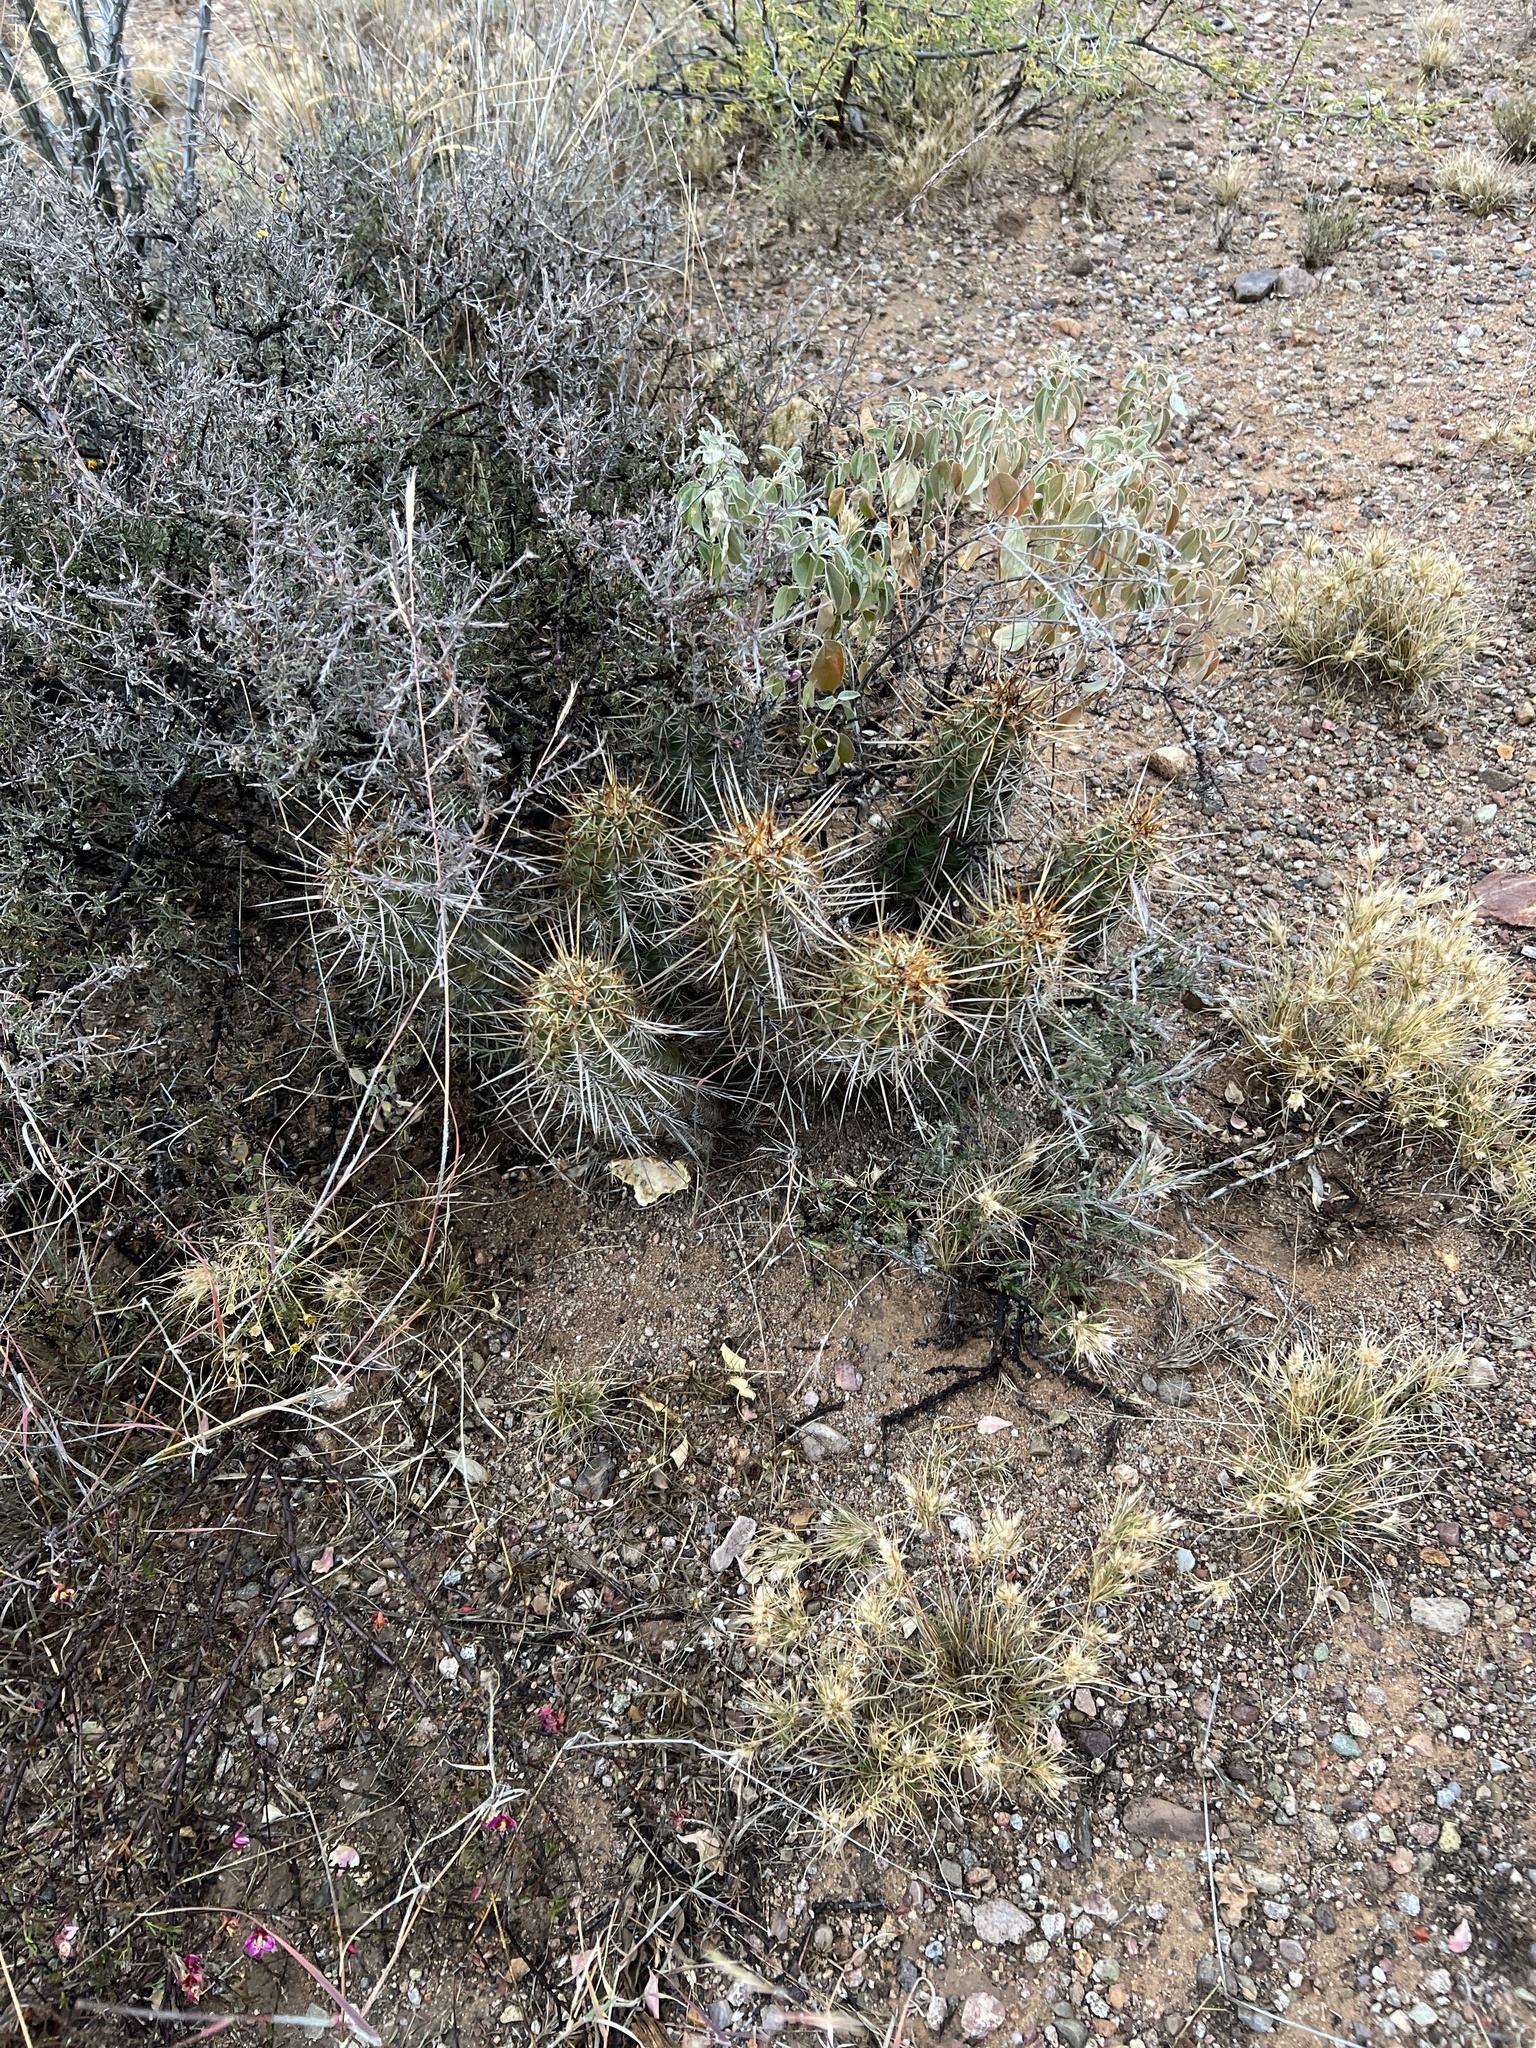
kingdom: Plantae
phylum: Tracheophyta
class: Magnoliopsida
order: Caryophyllales
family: Cactaceae
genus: Echinocereus
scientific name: Echinocereus fasciculatus
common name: Bundle hedgehog
